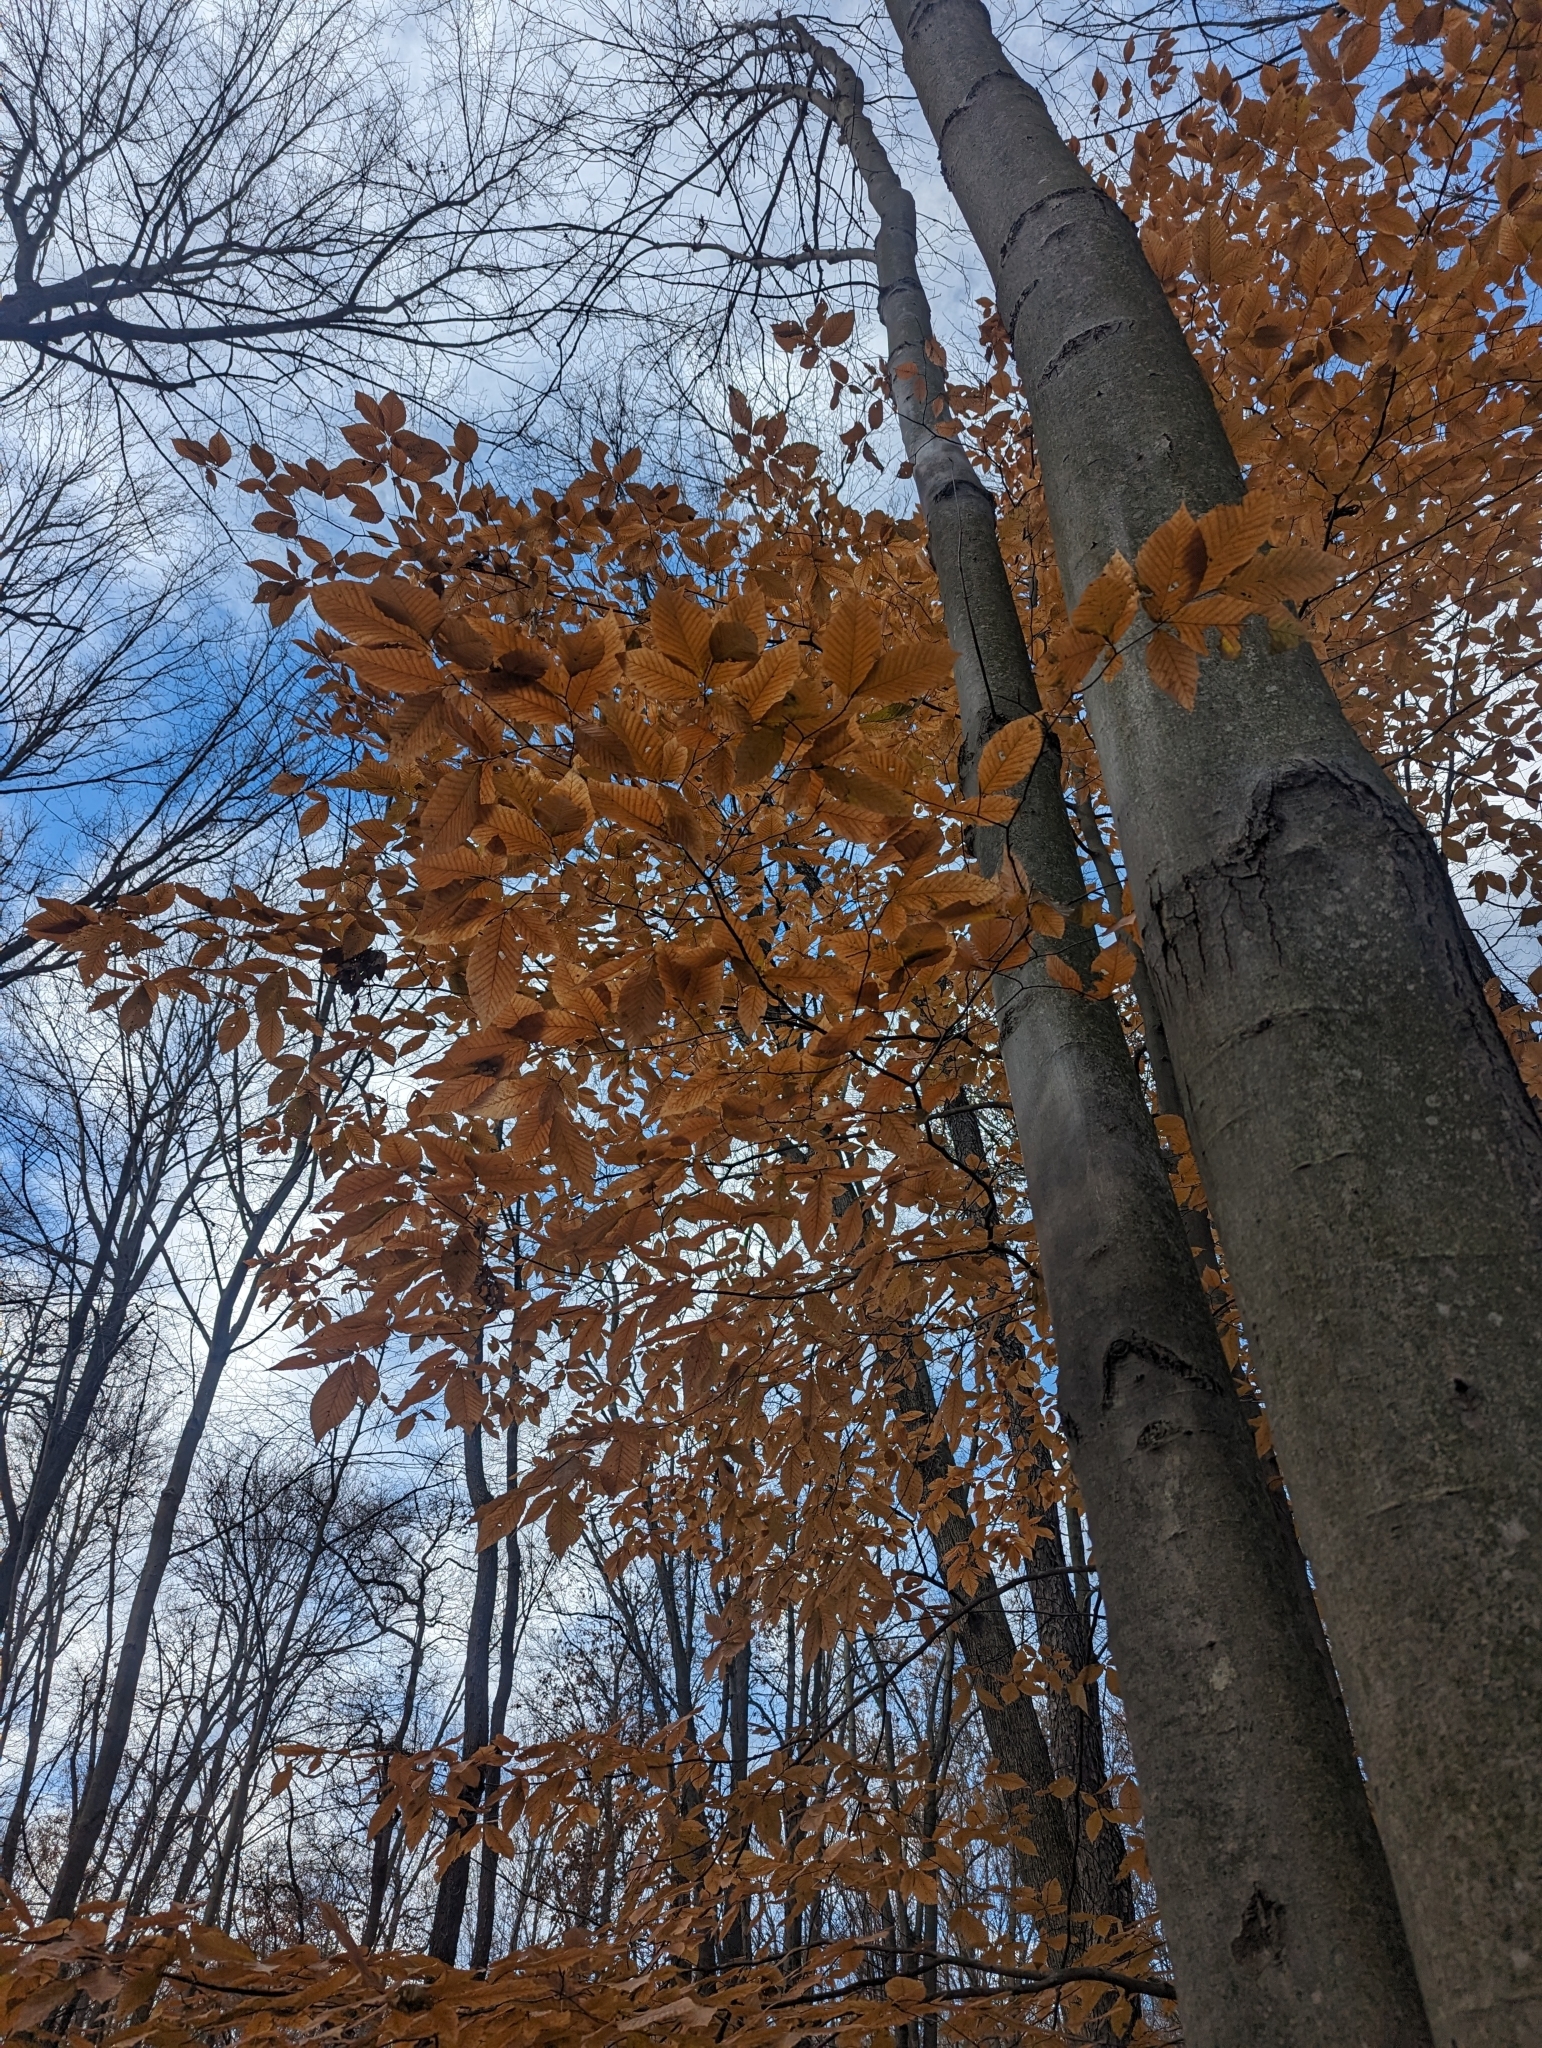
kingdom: Plantae
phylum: Tracheophyta
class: Magnoliopsida
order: Fagales
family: Fagaceae
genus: Fagus
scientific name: Fagus grandifolia
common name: American beech
